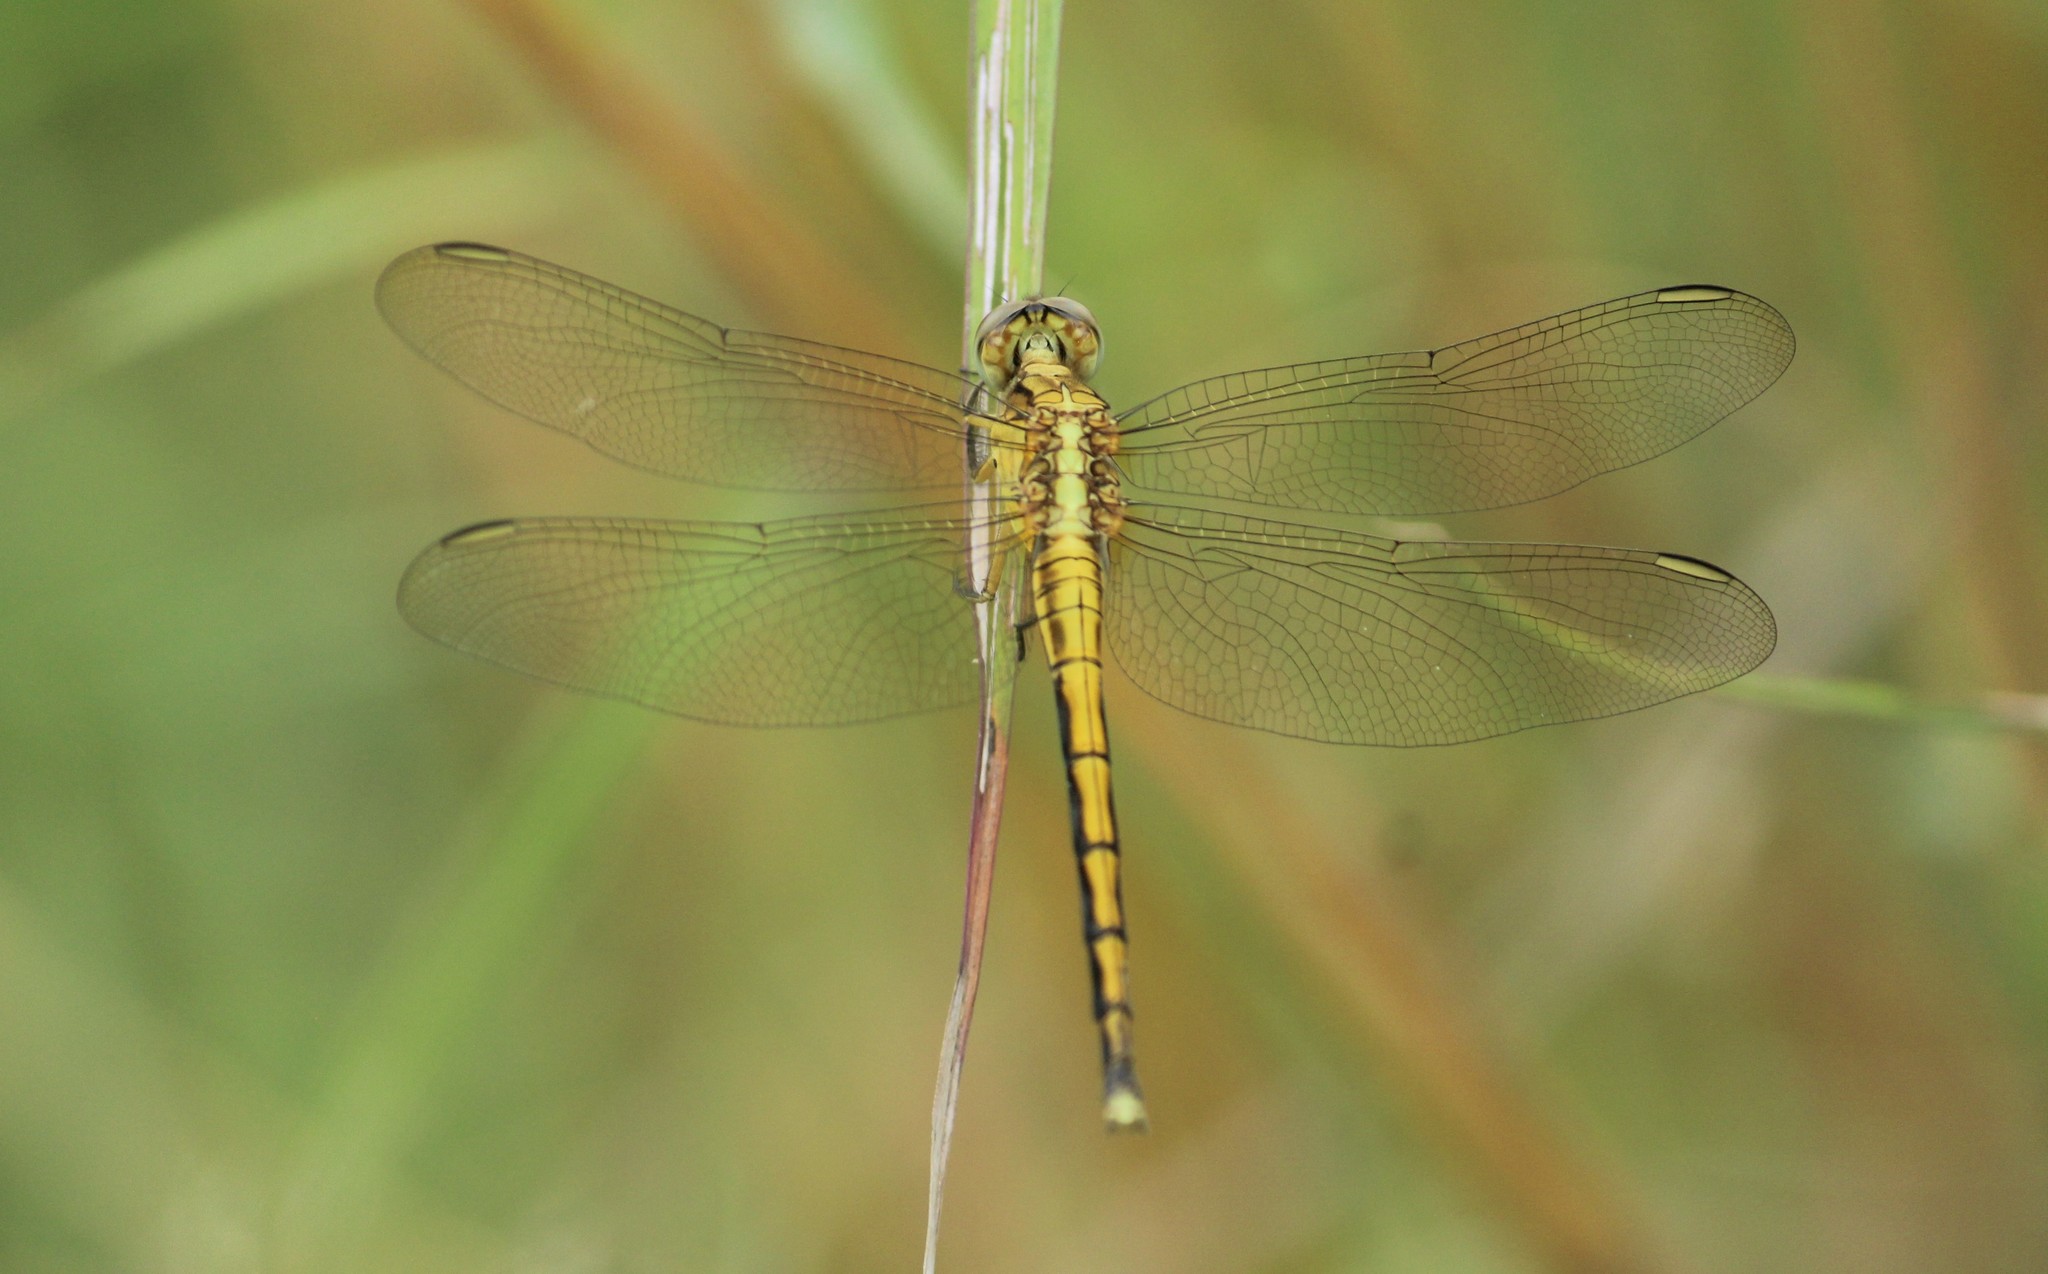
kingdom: Animalia
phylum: Arthropoda
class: Insecta
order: Odonata
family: Libellulidae
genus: Orthetrum
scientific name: Orthetrum luzonicum
